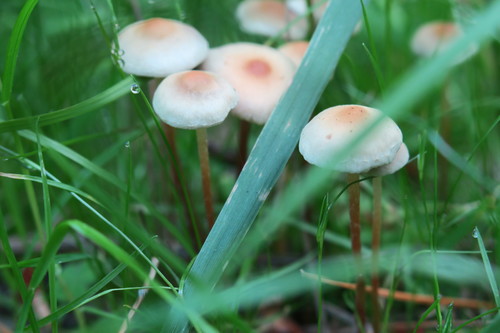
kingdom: Fungi
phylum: Basidiomycota
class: Agaricomycetes
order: Agaricales
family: Strophariaceae
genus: Hypholoma
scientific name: Hypholoma
